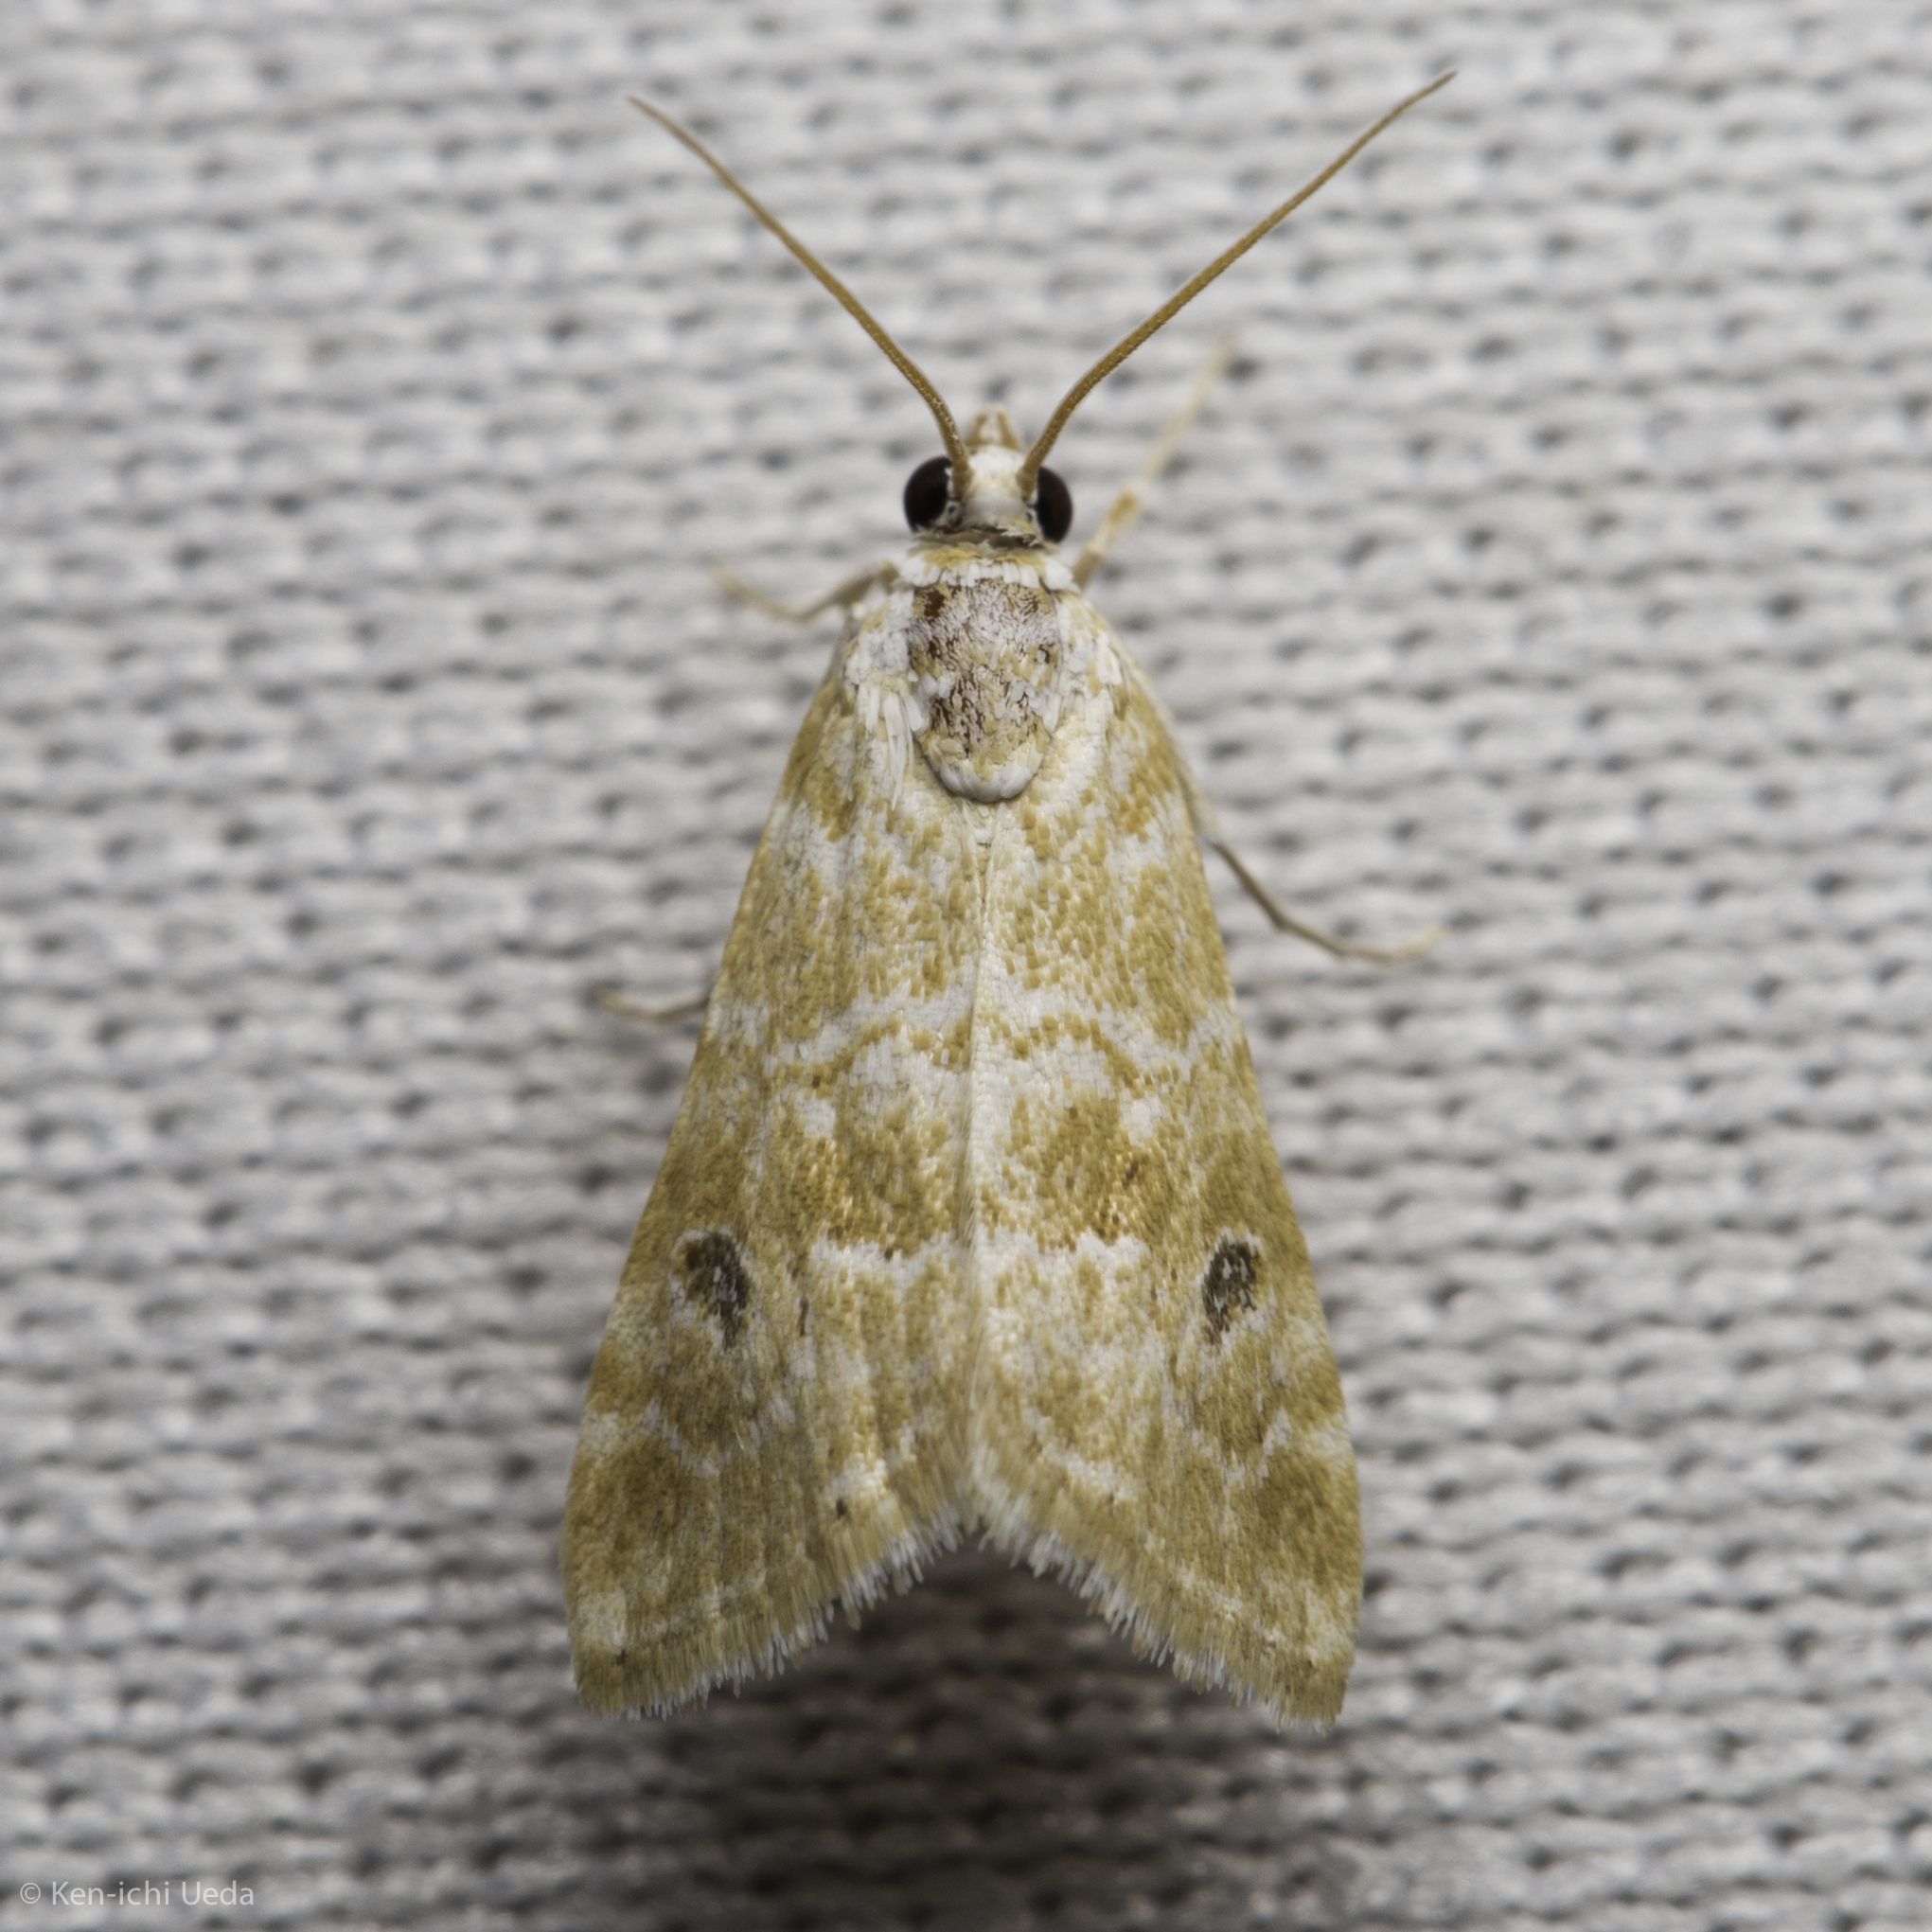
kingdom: Animalia
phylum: Arthropoda
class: Insecta
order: Lepidoptera
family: Crambidae
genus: Hellula
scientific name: Hellula rogatalis
